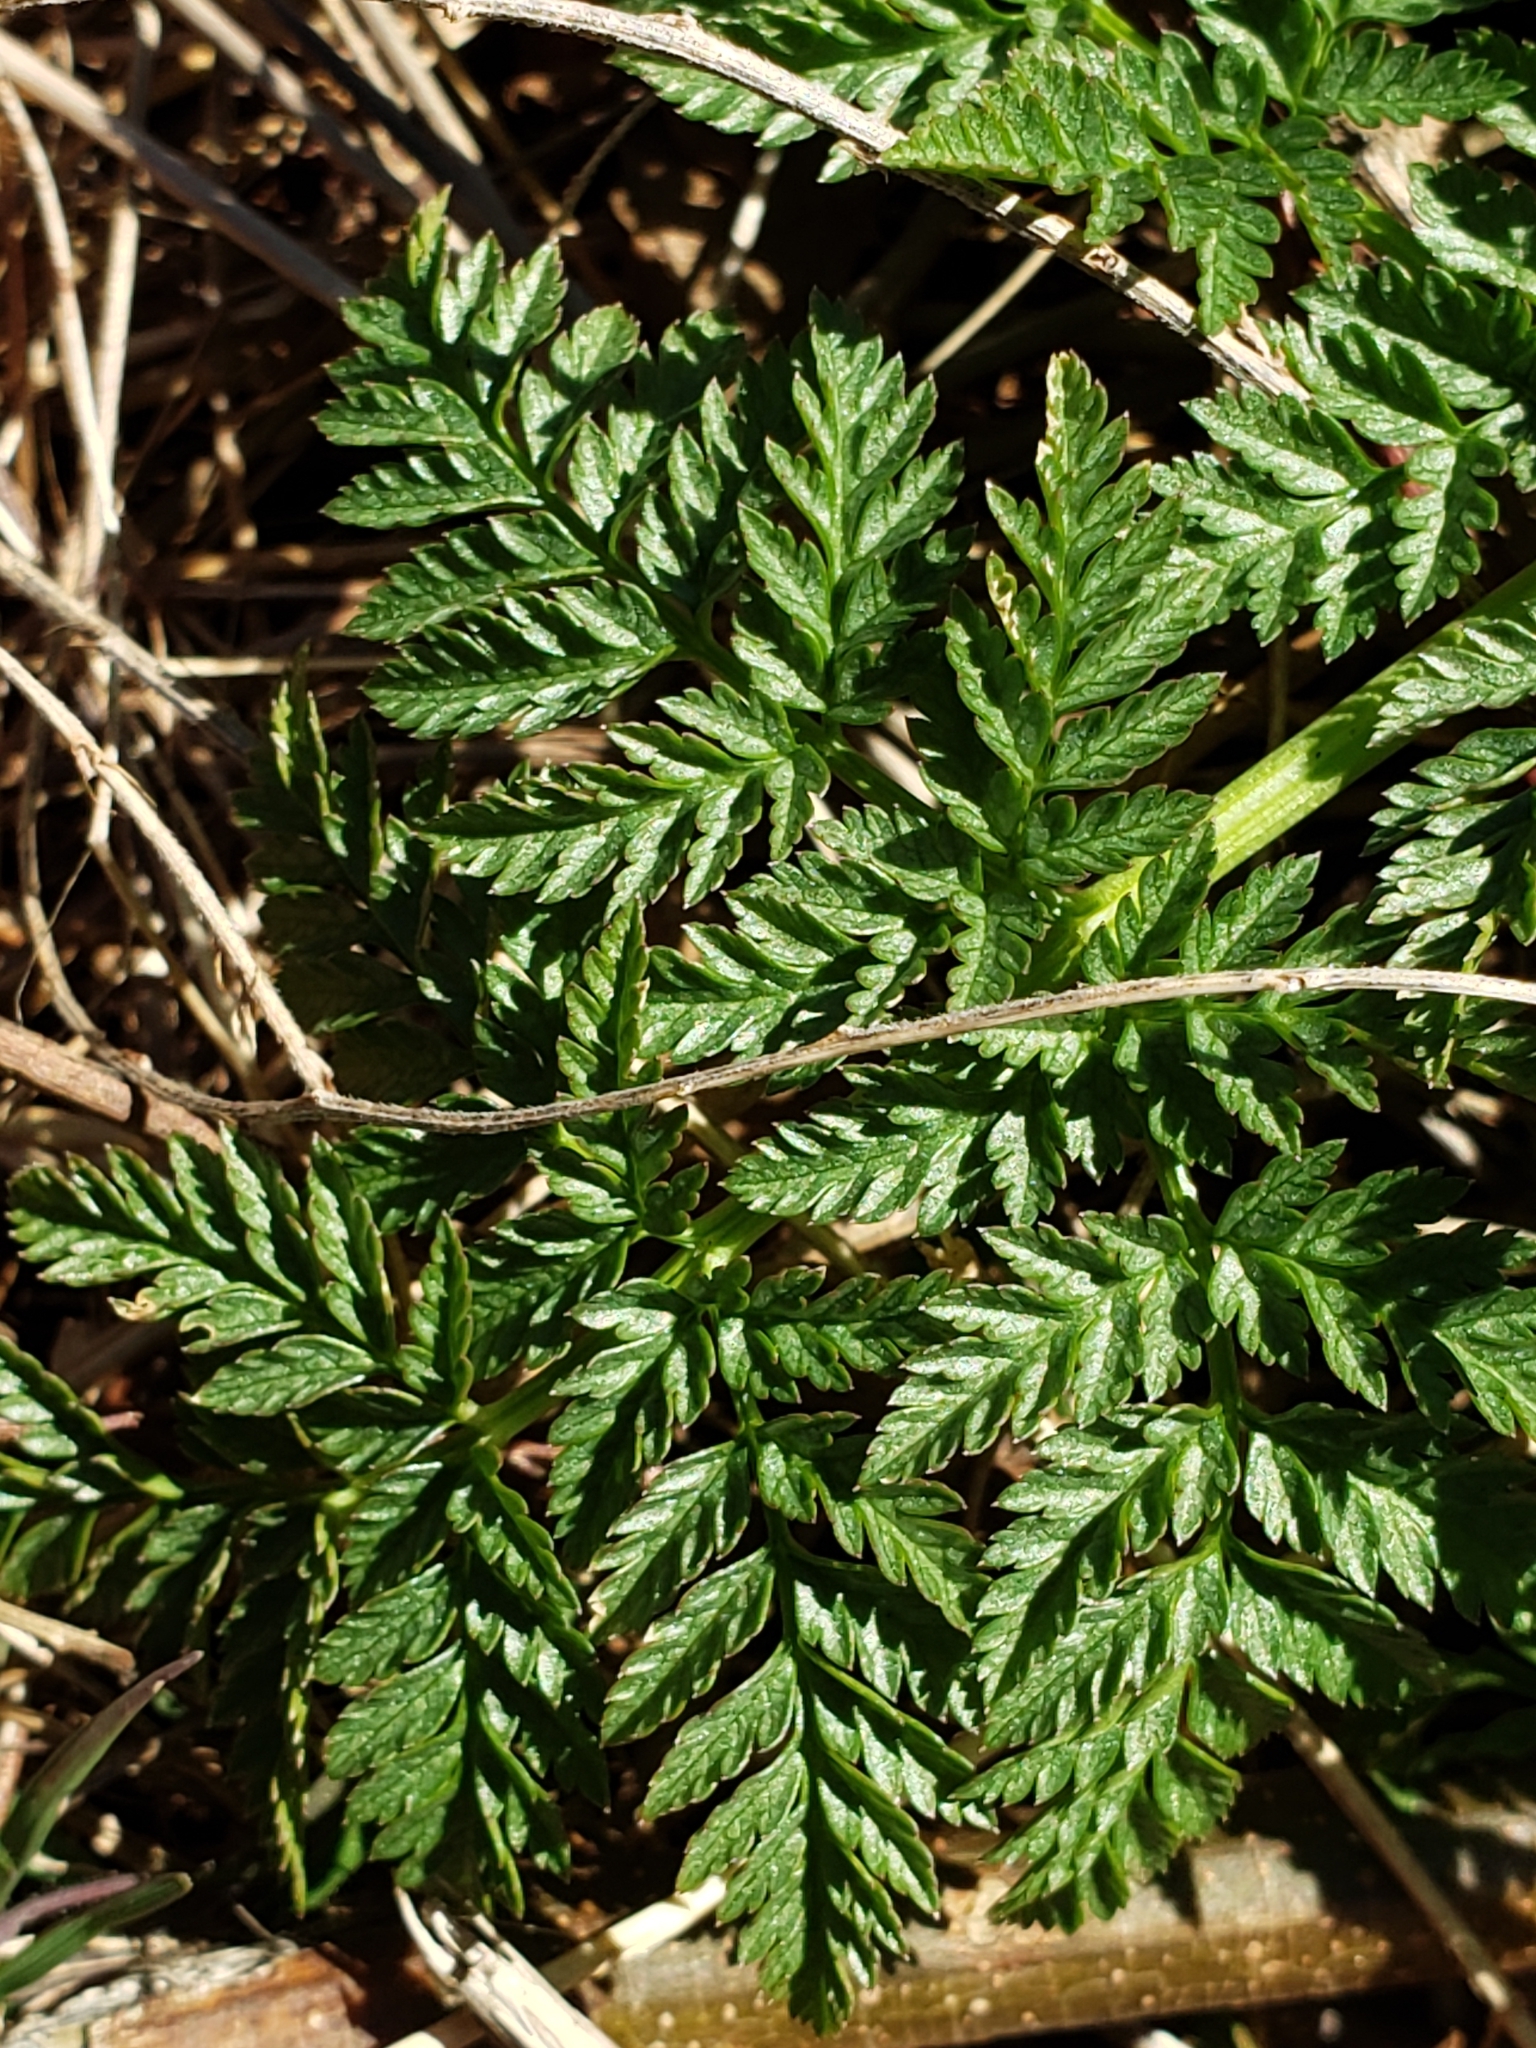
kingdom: Plantae
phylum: Tracheophyta
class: Magnoliopsida
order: Apiales
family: Apiaceae
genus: Conium
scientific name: Conium maculatum
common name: Hemlock
